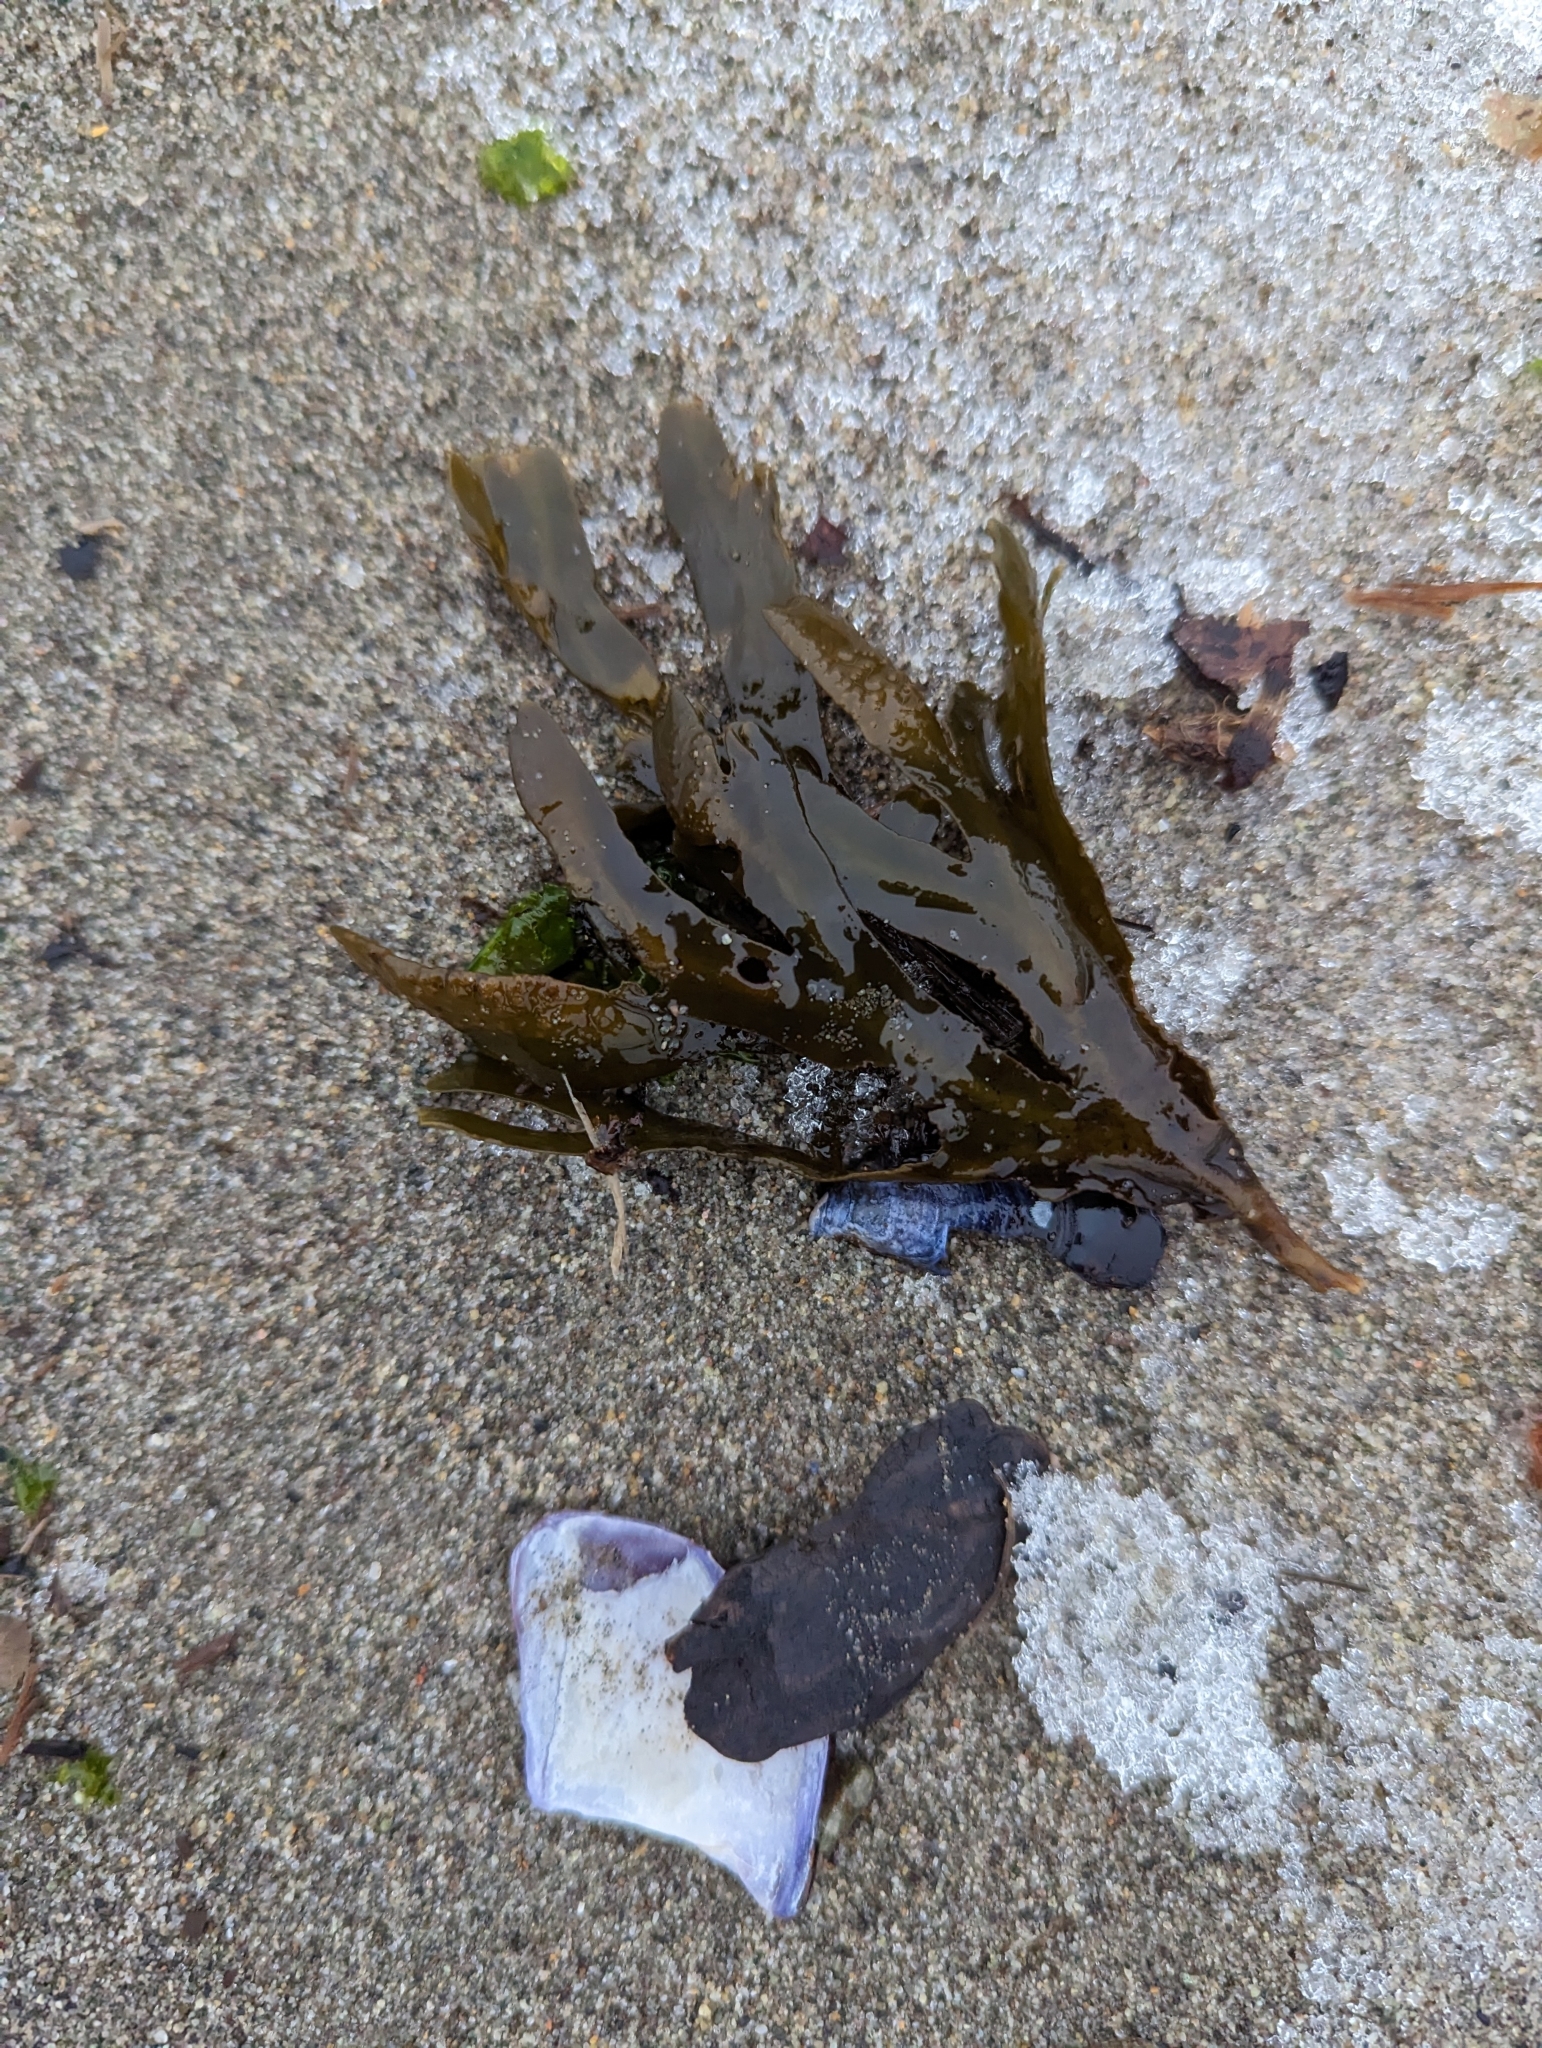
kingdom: Chromista
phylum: Ochrophyta
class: Phaeophyceae
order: Fucales
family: Fucaceae
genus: Fucus
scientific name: Fucus distichus
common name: Rockweed
